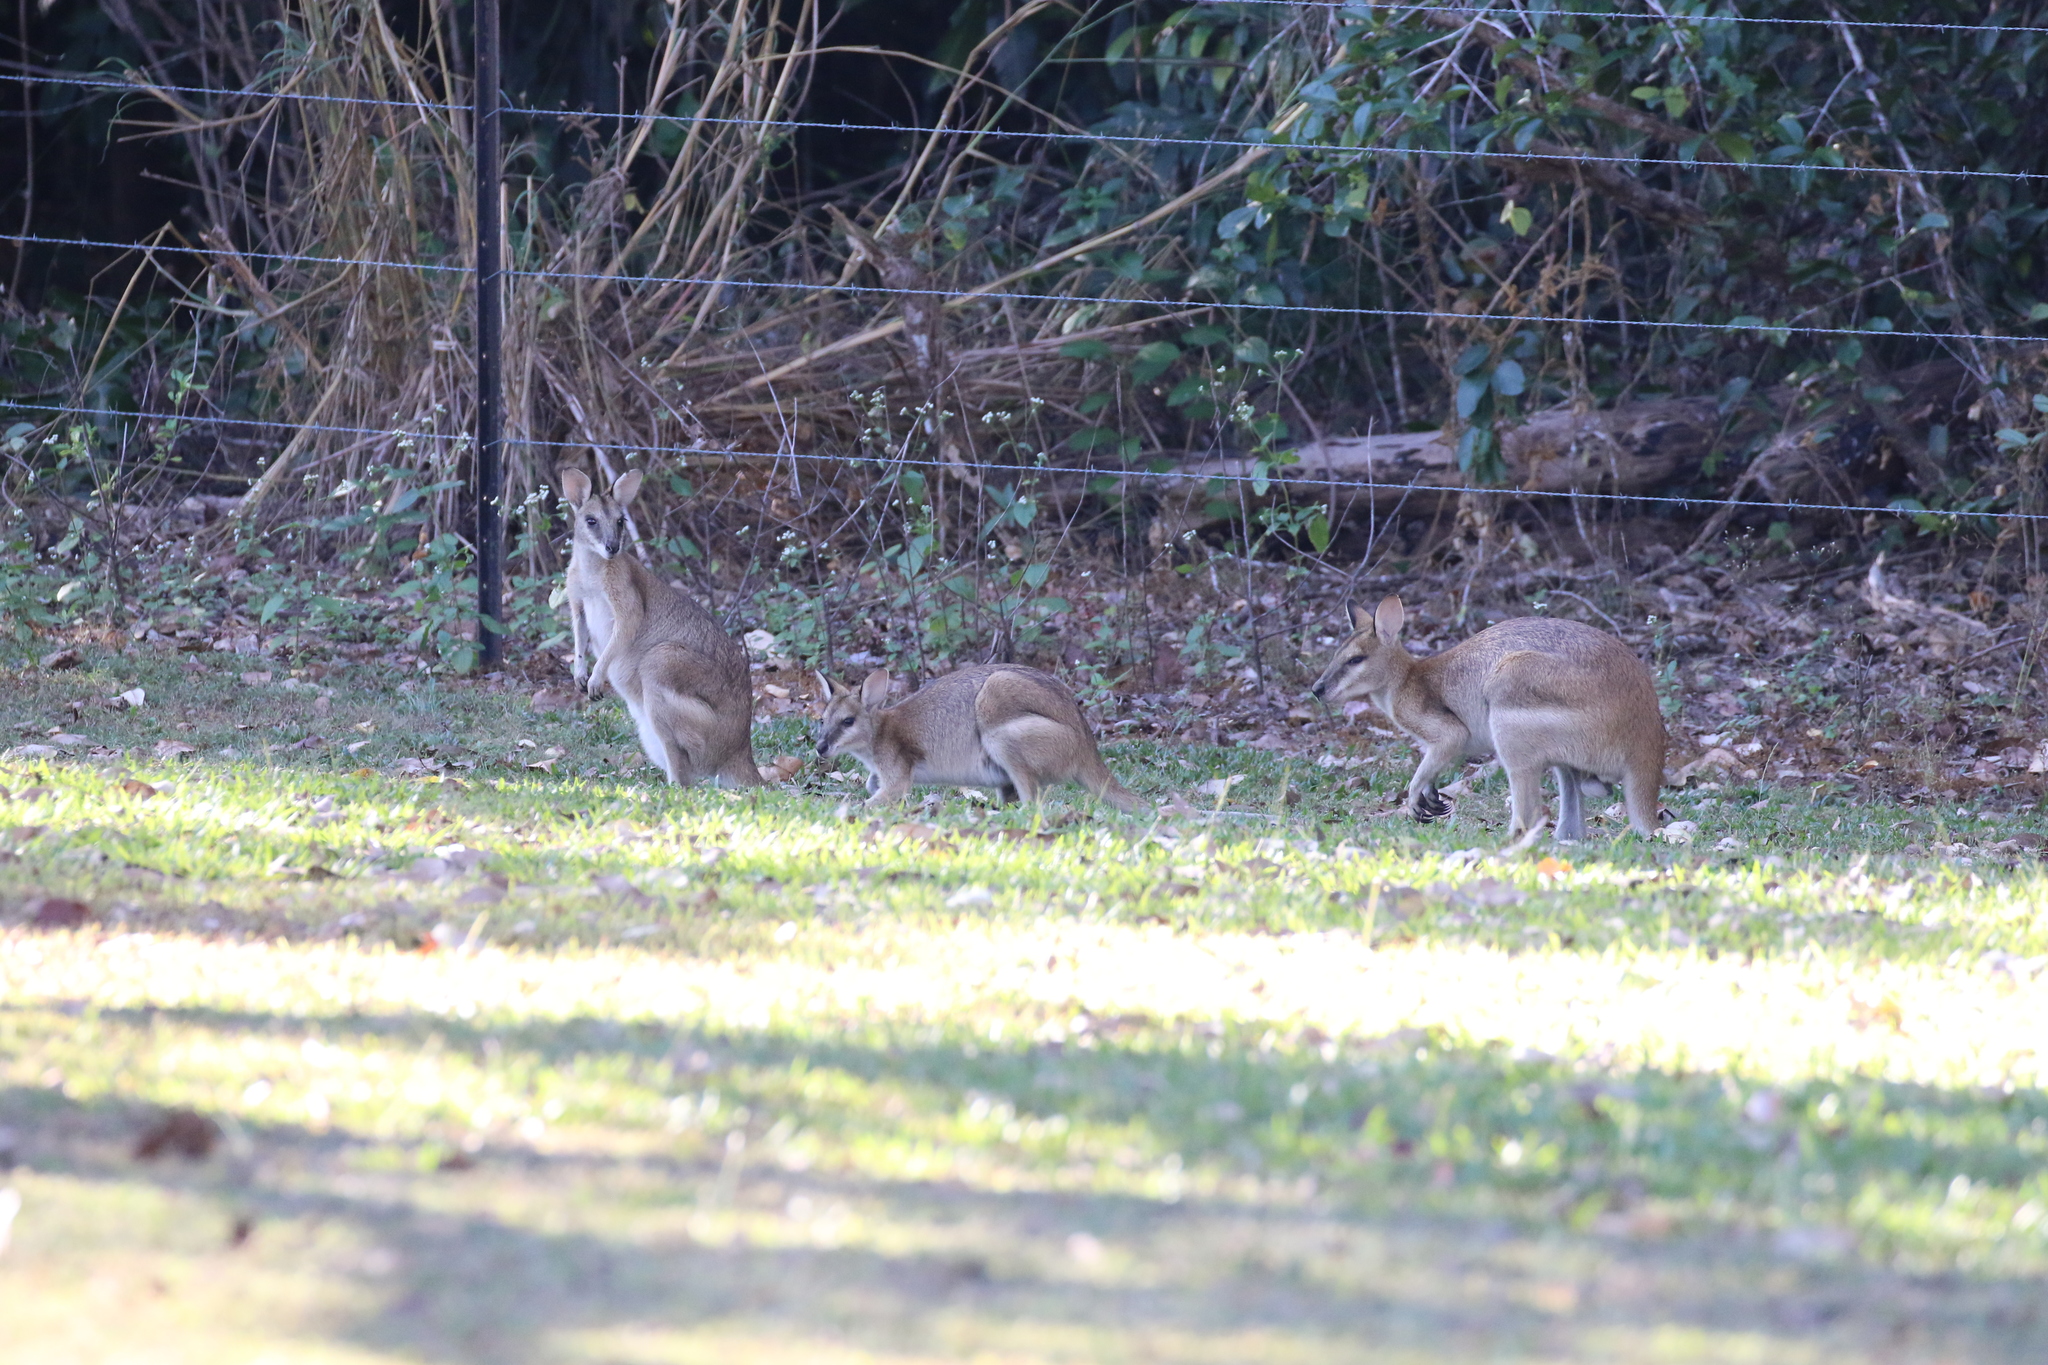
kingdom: Animalia
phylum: Chordata
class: Mammalia
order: Diprotodontia
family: Macropodidae
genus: Macropus
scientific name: Macropus agilis
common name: Agile wallaby
